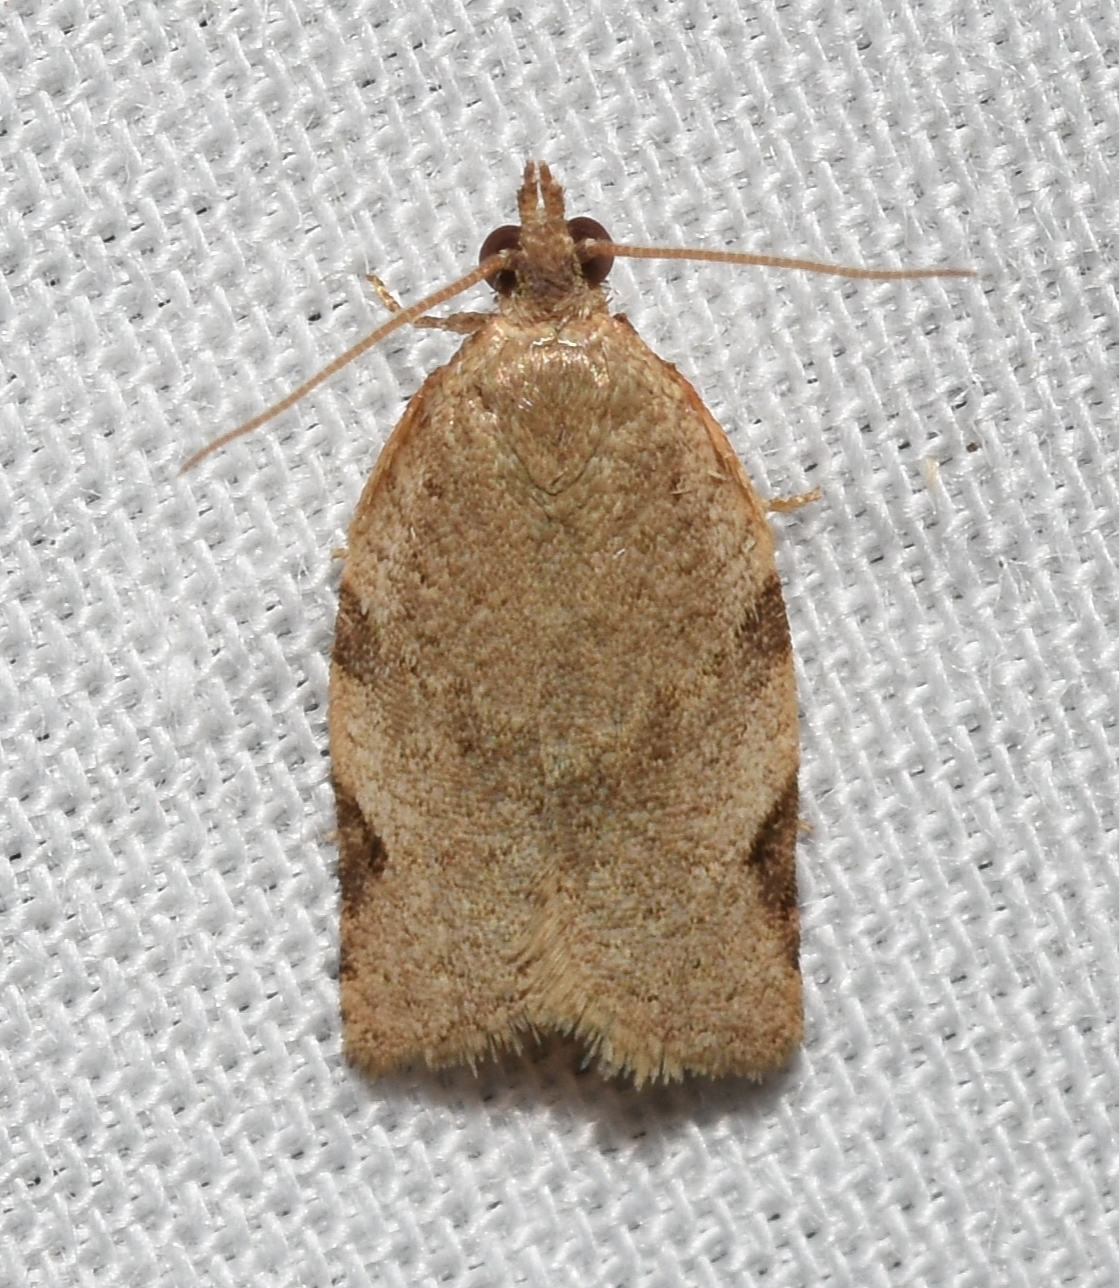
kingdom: Animalia
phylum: Arthropoda
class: Insecta
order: Lepidoptera
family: Tortricidae
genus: Clepsis
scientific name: Clepsis virescana
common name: Greenish apple moth
